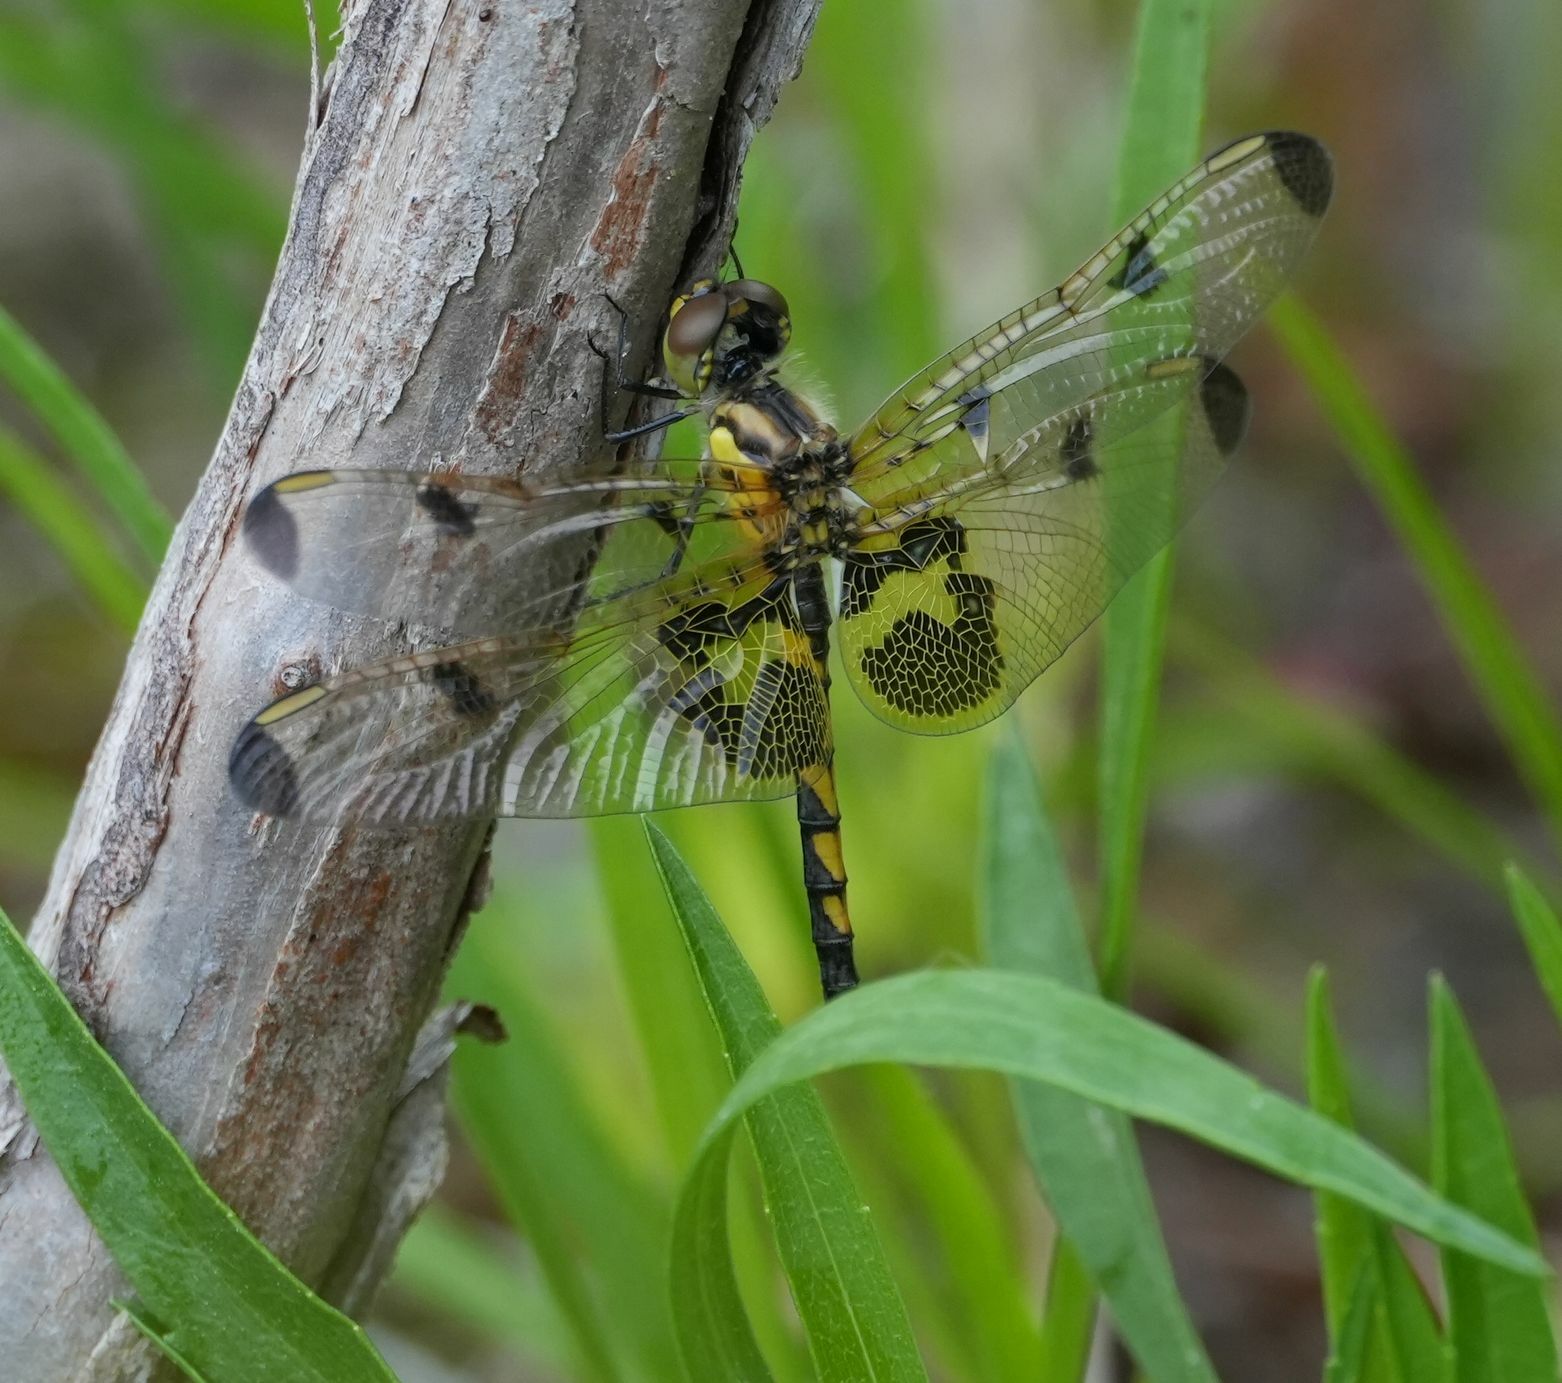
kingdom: Animalia
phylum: Arthropoda
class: Insecta
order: Odonata
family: Libellulidae
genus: Celithemis
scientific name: Celithemis elisa
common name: Calico pennant
